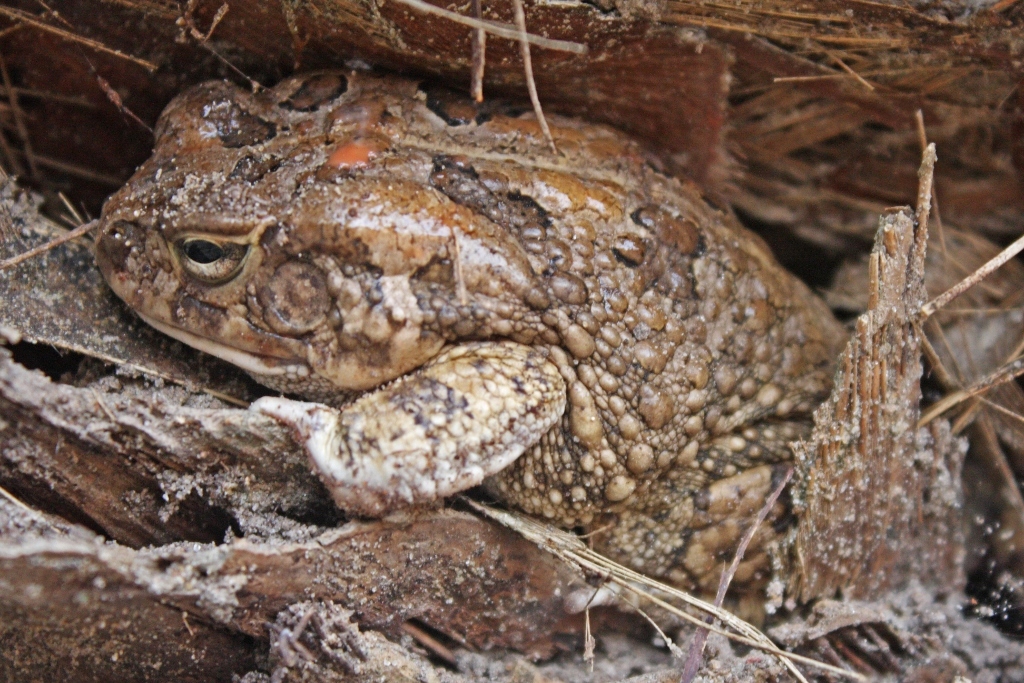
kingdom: Animalia
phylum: Chordata
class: Amphibia
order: Anura
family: Bufonidae
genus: Sclerophrys
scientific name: Sclerophrys regularis
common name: African common toad
